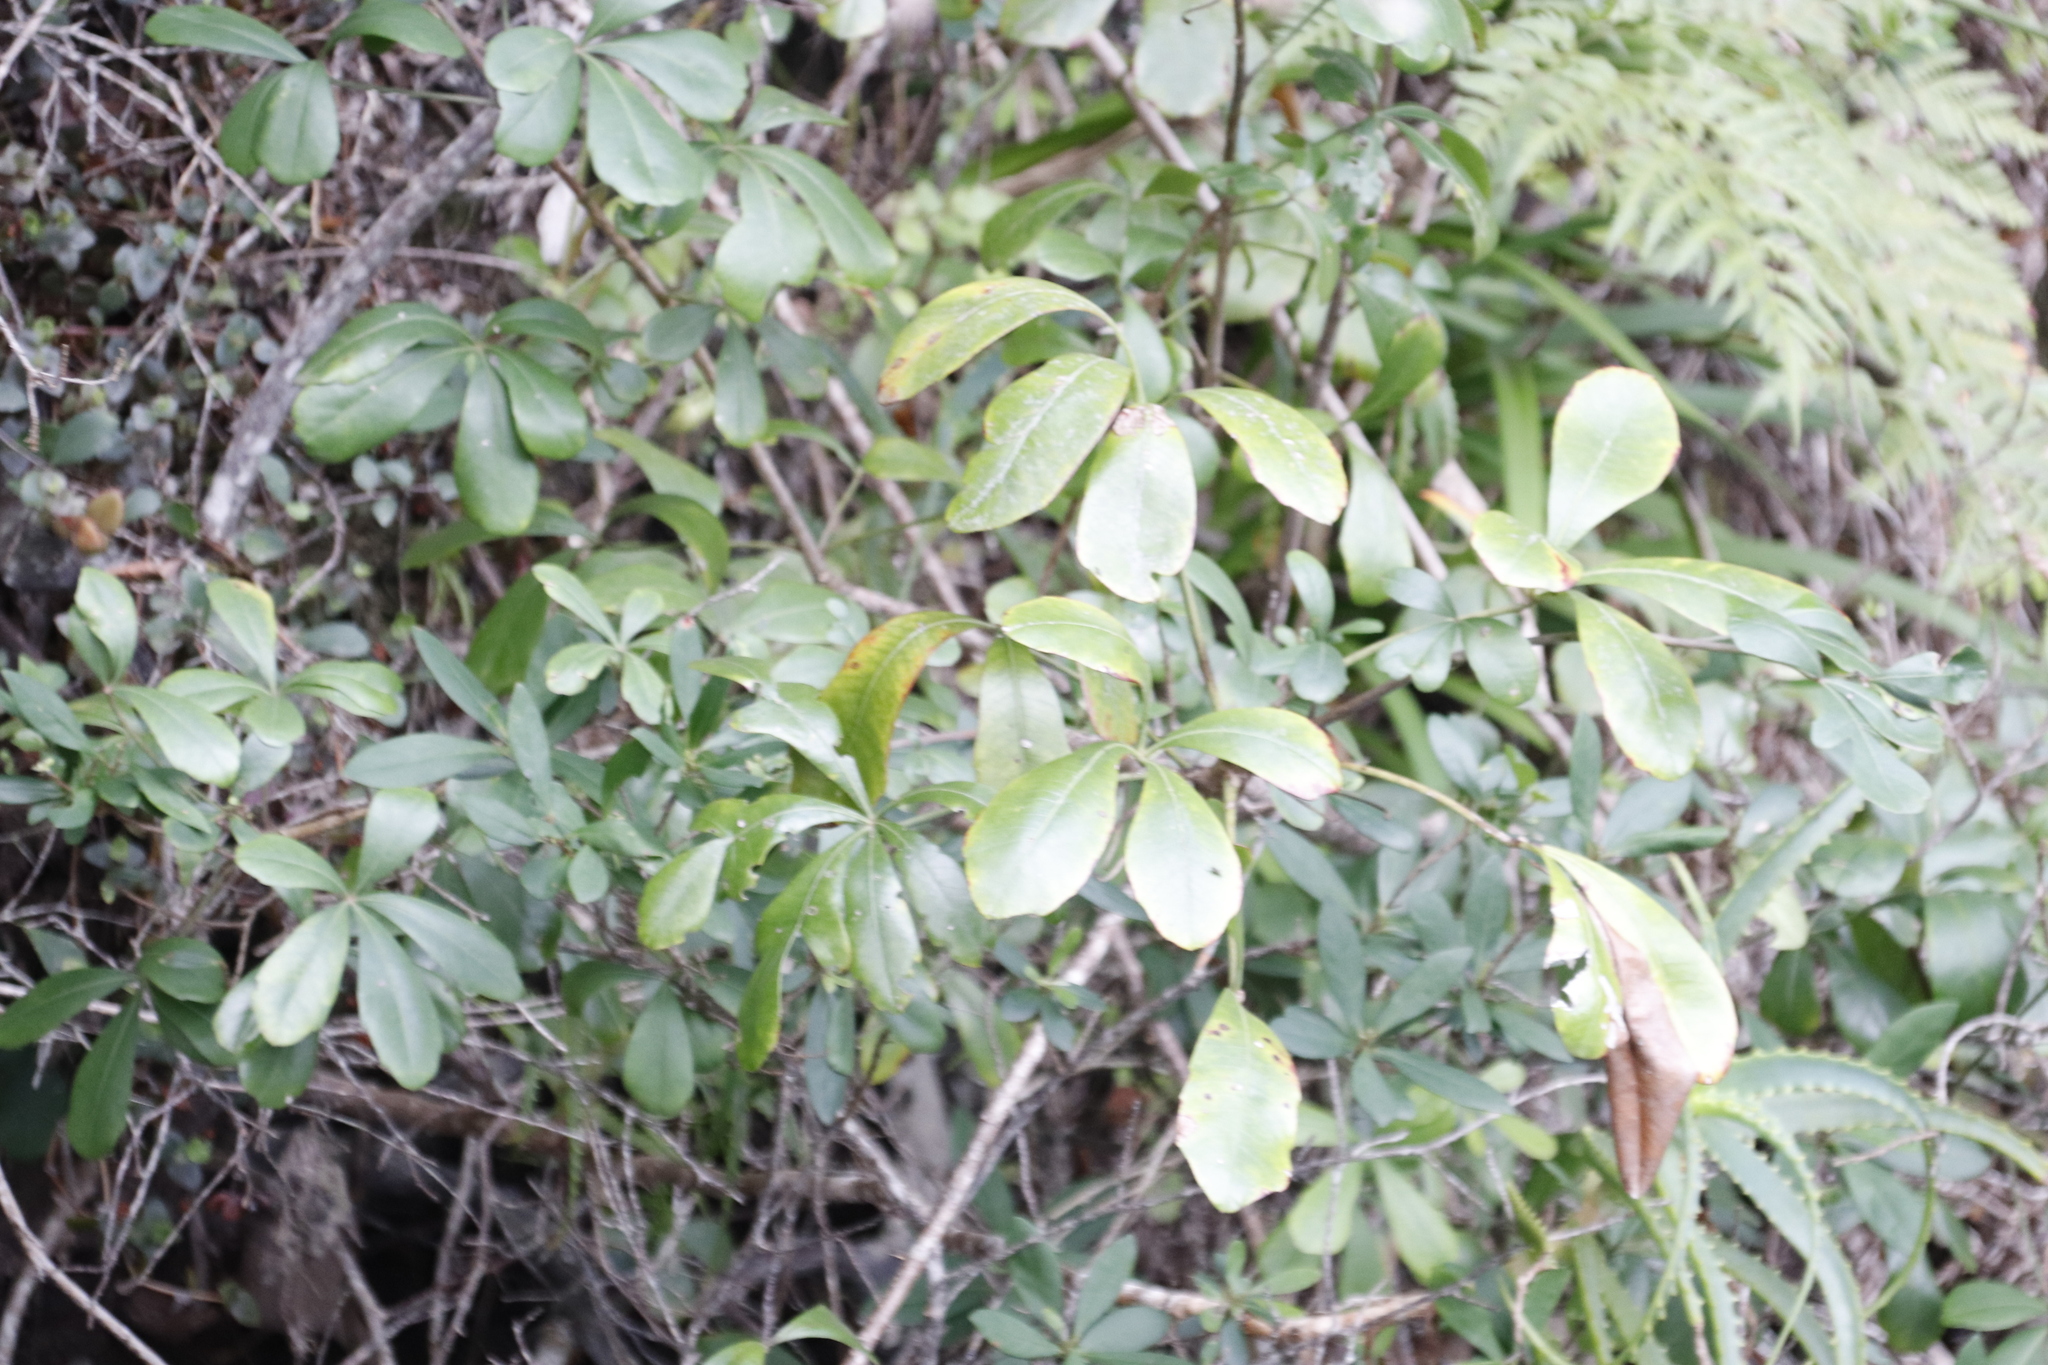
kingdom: Plantae
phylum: Tracheophyta
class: Magnoliopsida
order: Apiales
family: Araliaceae
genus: Cussonia
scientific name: Cussonia thyrsiflora
